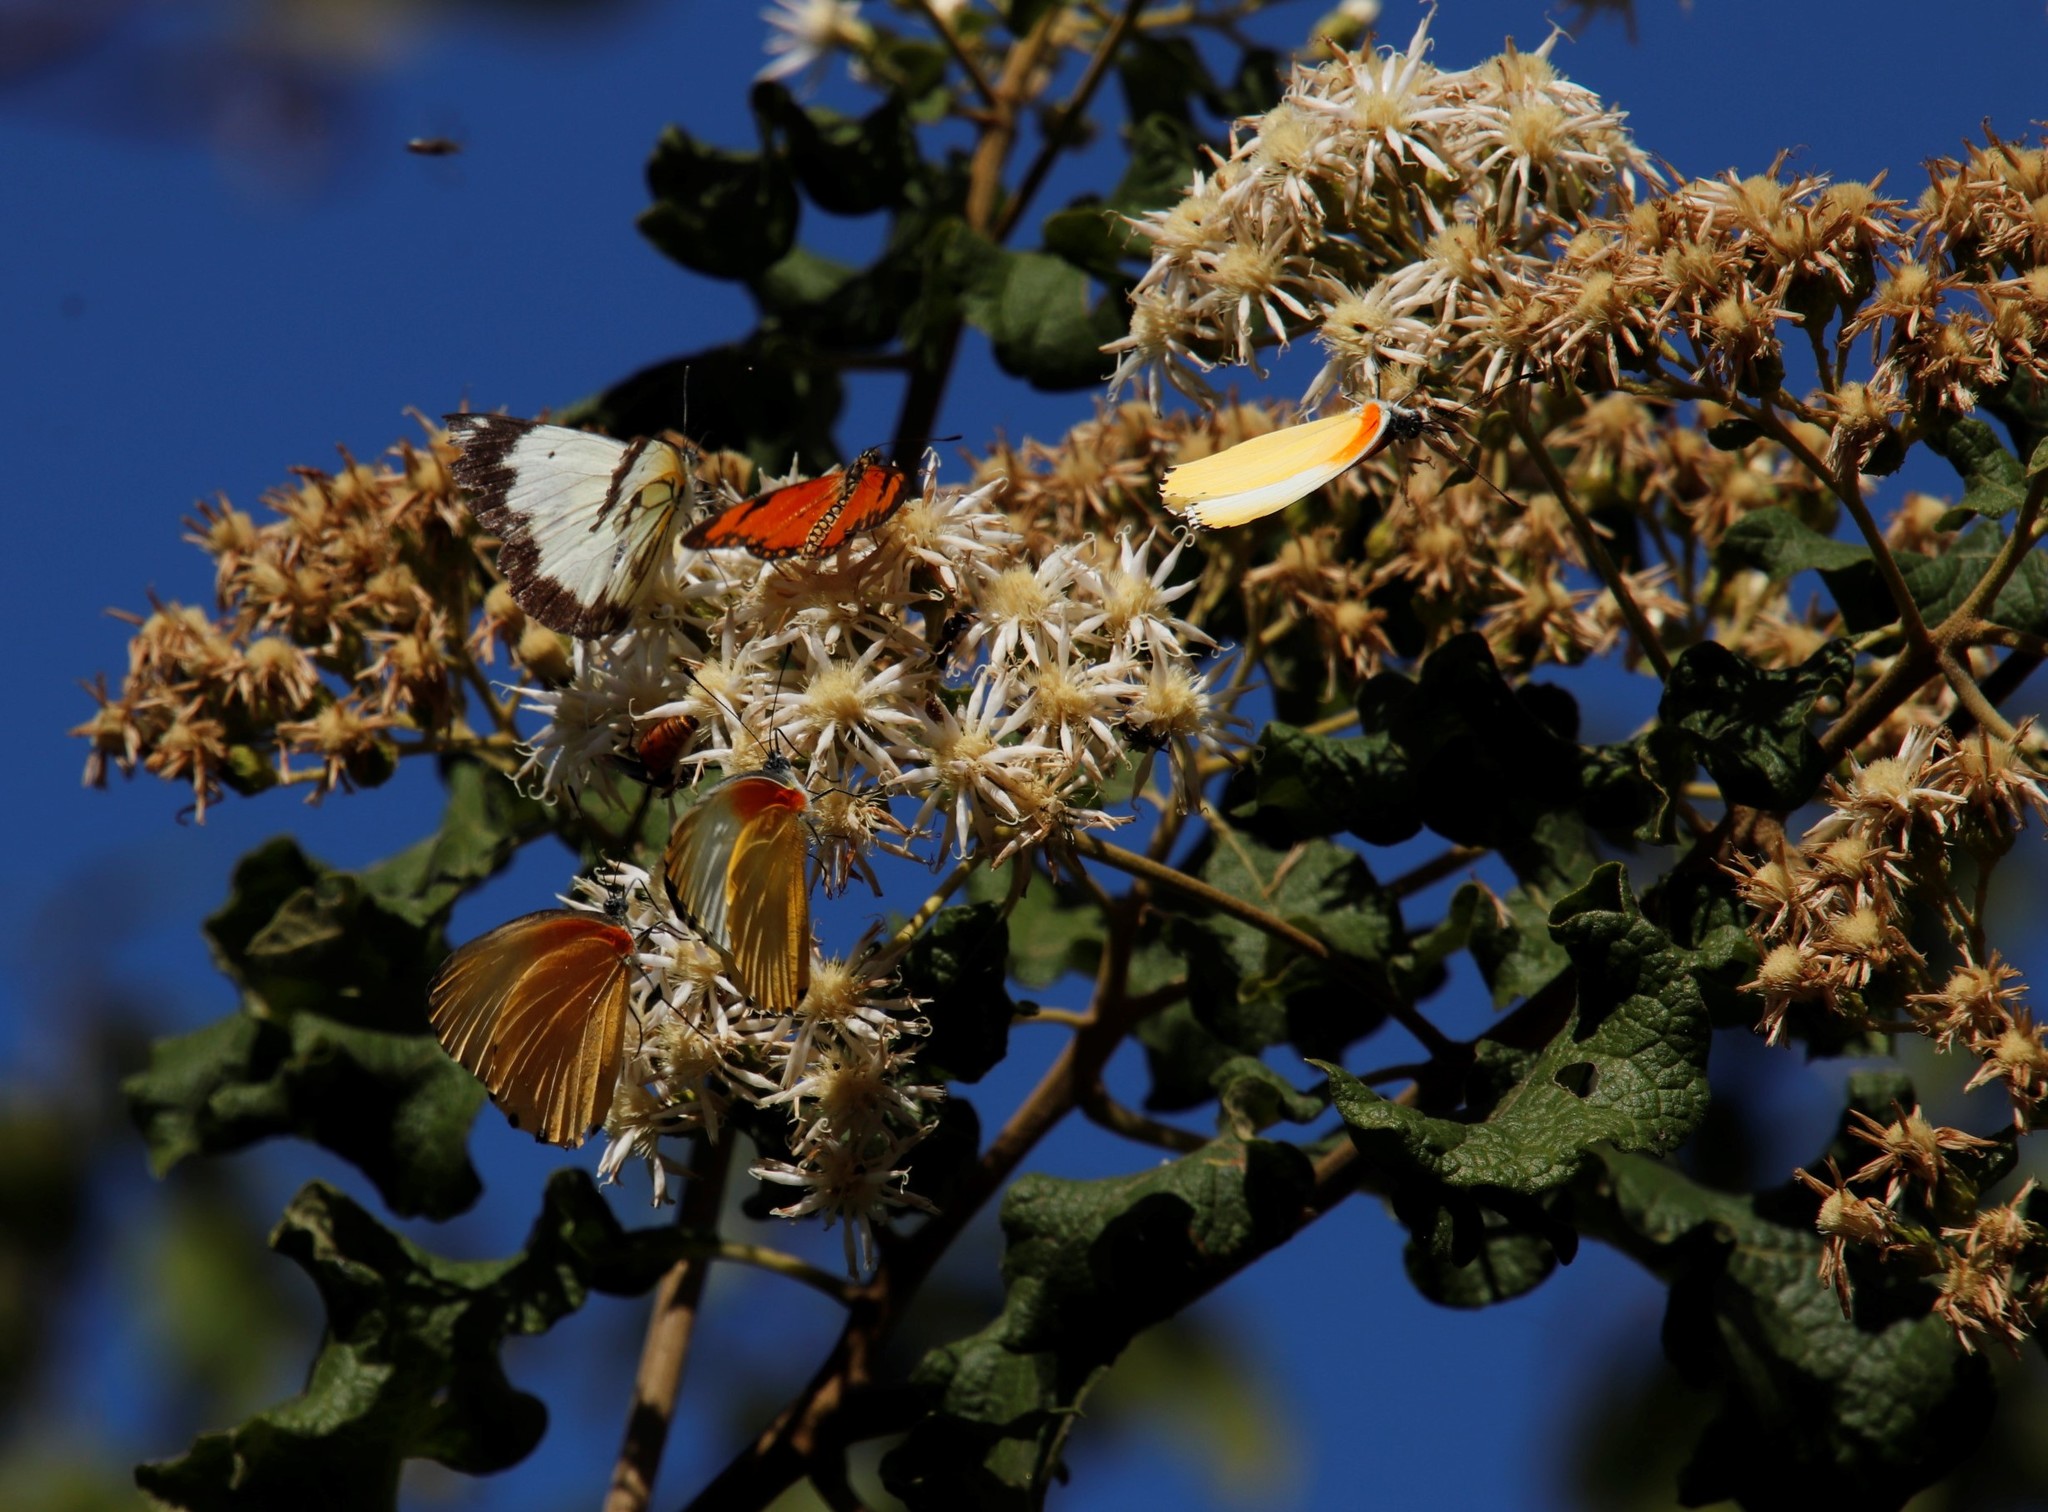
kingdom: Animalia
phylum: Arthropoda
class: Insecta
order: Lepidoptera
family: Pieridae
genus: Mylothris
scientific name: Mylothris agathina
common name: Eastern dotted border
